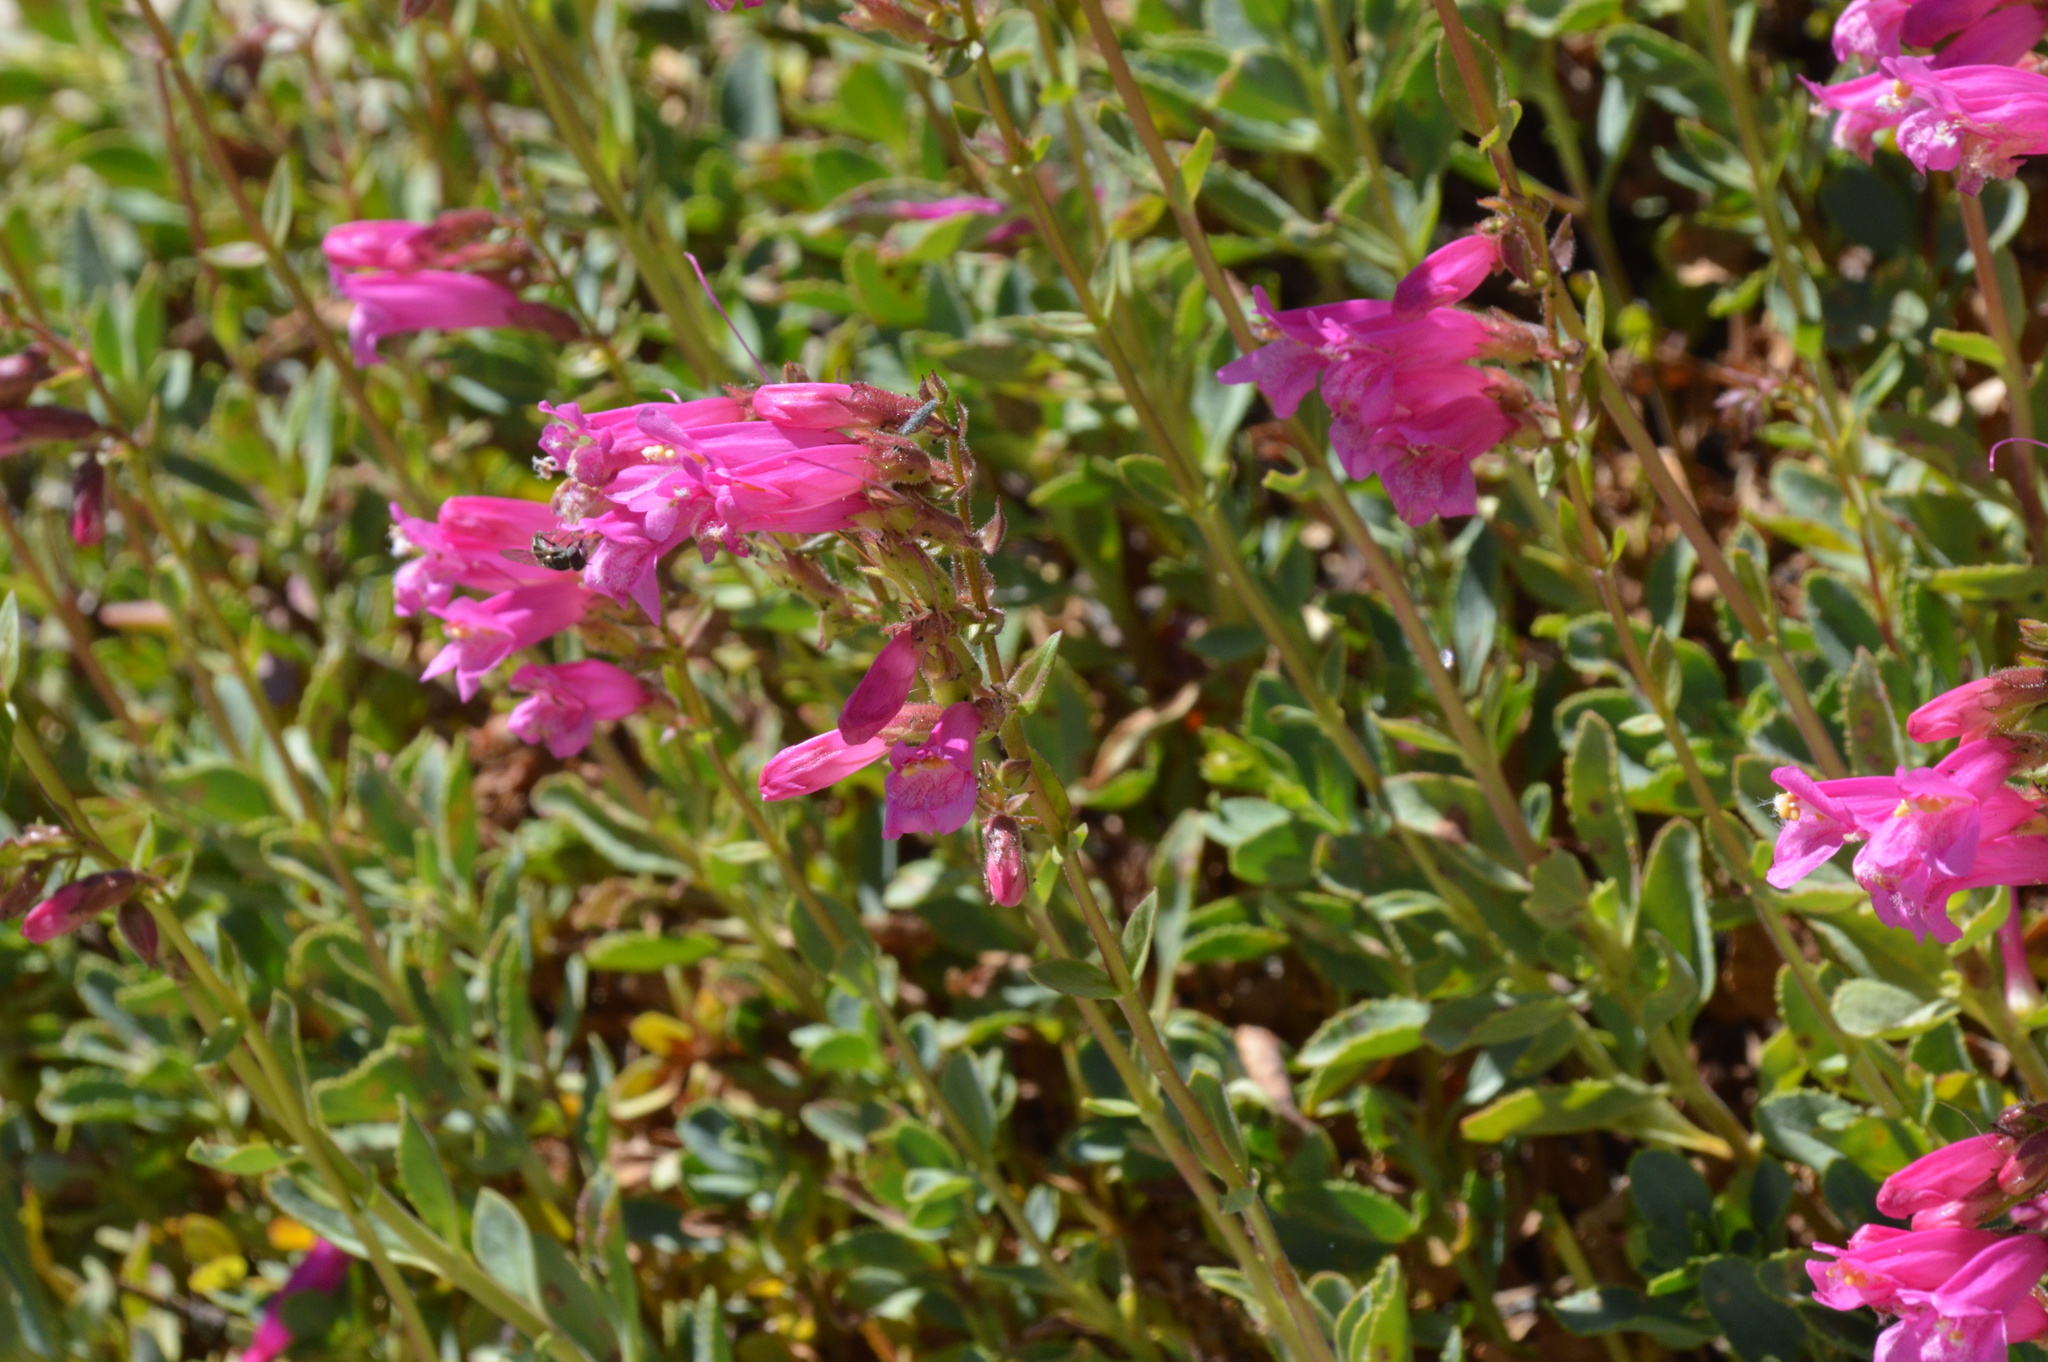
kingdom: Plantae
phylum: Tracheophyta
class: Magnoliopsida
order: Lamiales
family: Plantaginaceae
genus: Penstemon
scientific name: Penstemon newberryi
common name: Mountain-pride
